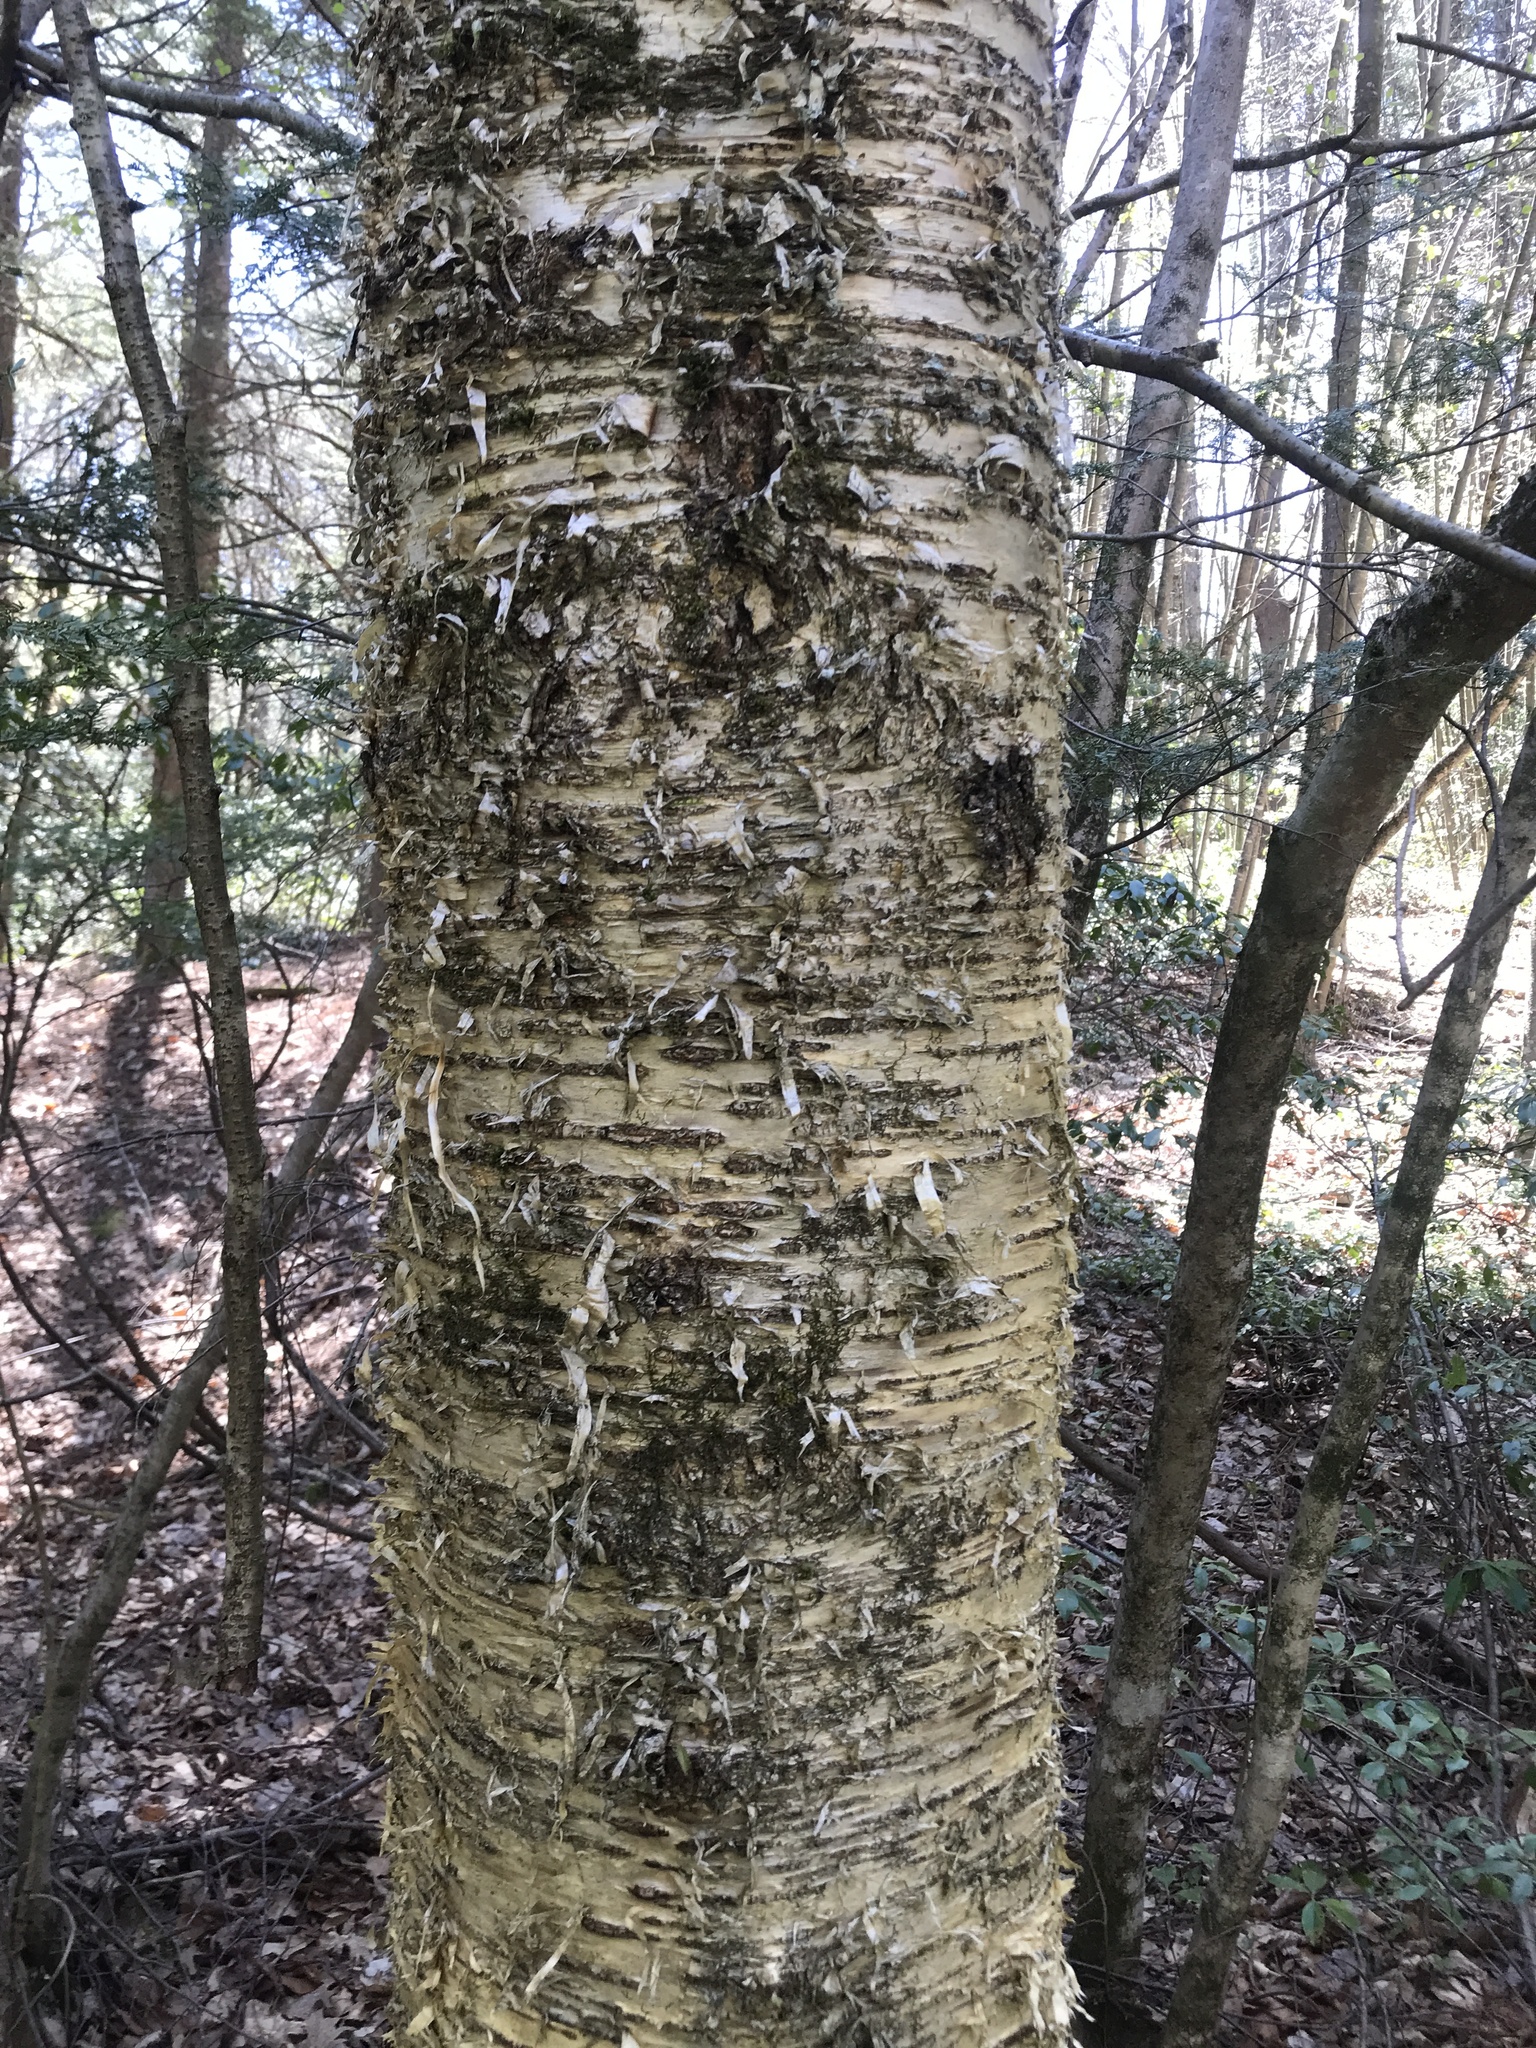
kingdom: Plantae
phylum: Tracheophyta
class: Magnoliopsida
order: Fagales
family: Betulaceae
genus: Betula
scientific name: Betula alleghaniensis
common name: Yellow birch
